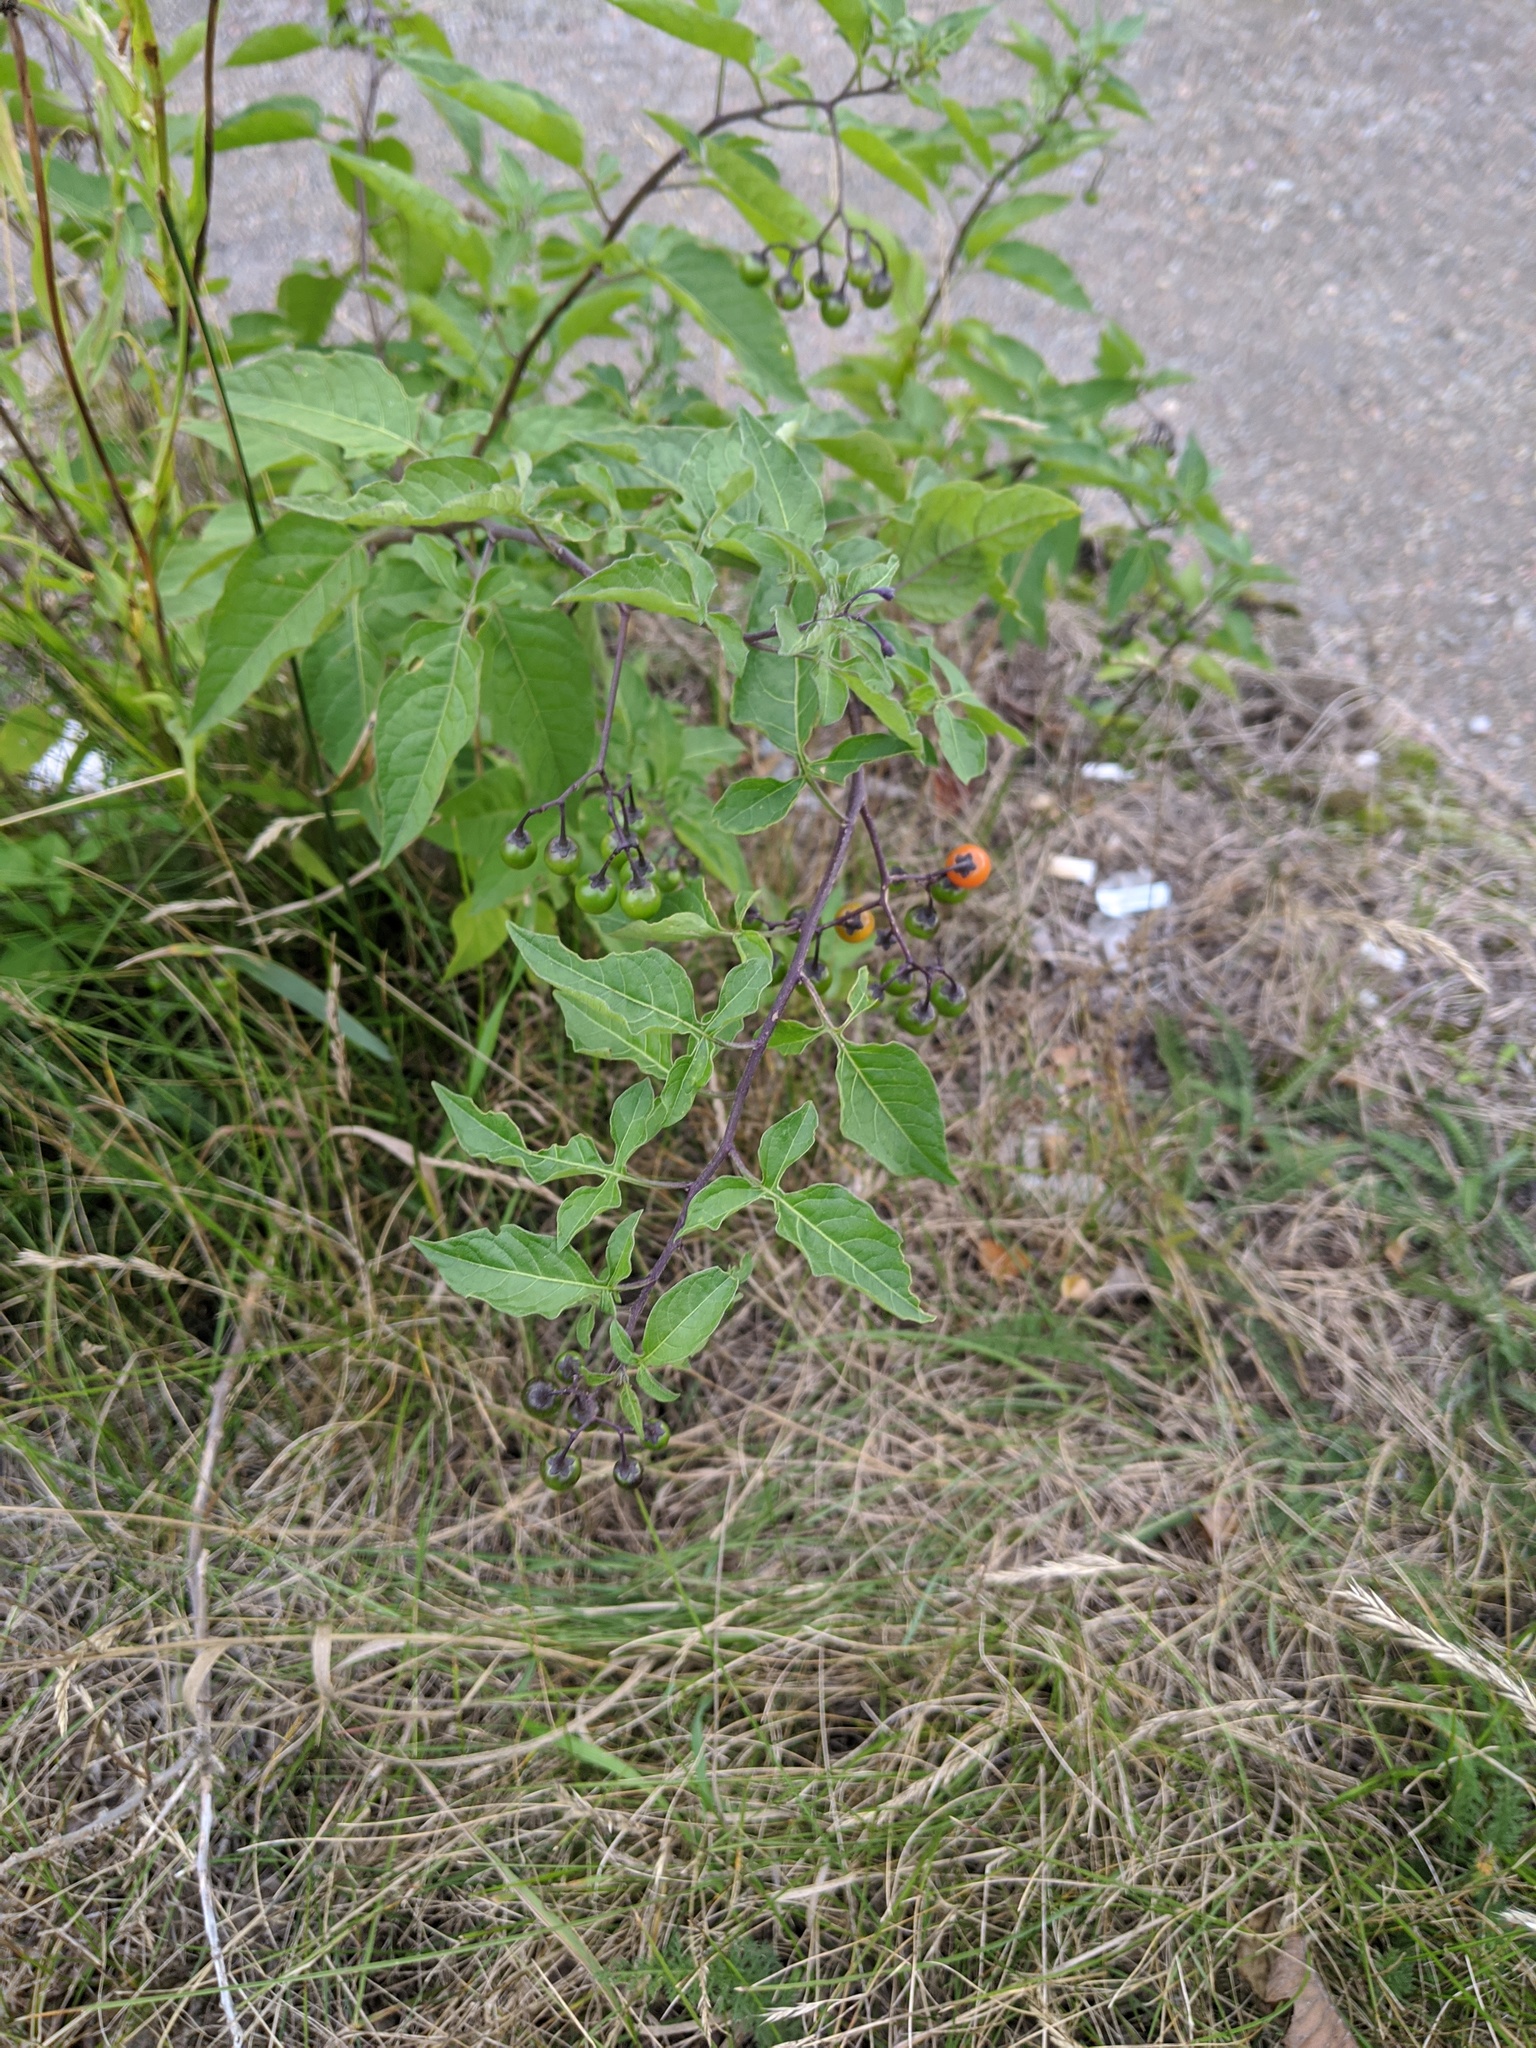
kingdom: Plantae
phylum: Tracheophyta
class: Magnoliopsida
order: Solanales
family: Solanaceae
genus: Solanum
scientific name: Solanum dulcamara
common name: Climbing nightshade
